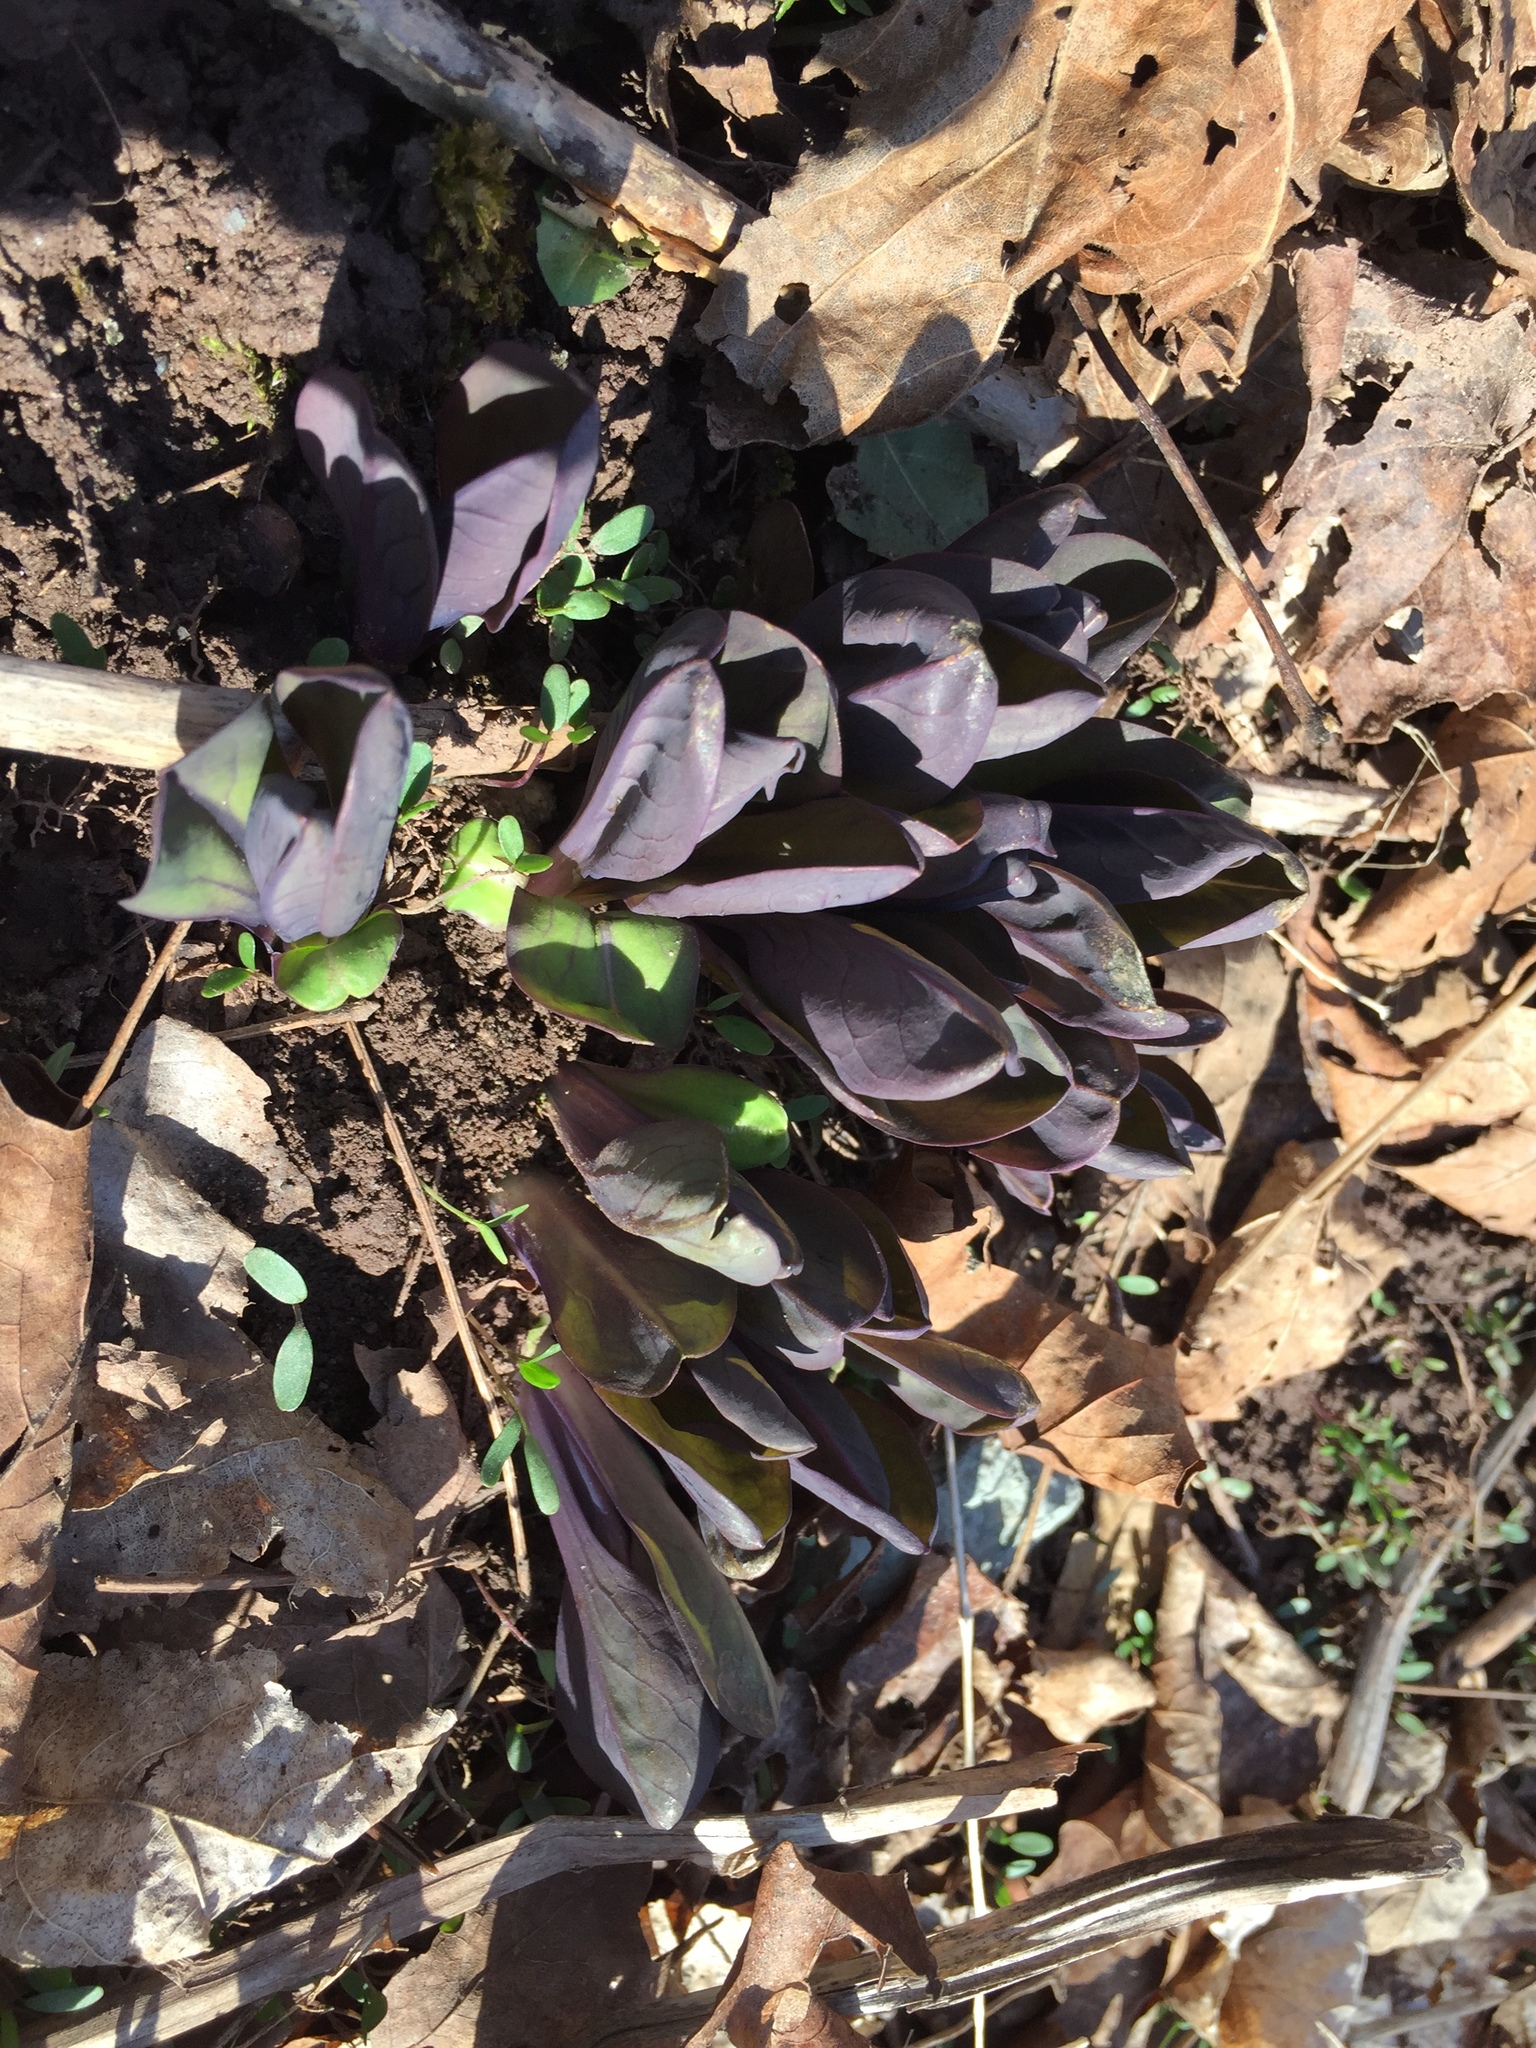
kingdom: Plantae
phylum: Tracheophyta
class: Magnoliopsida
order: Boraginales
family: Boraginaceae
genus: Mertensia
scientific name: Mertensia virginica
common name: Virginia bluebells
